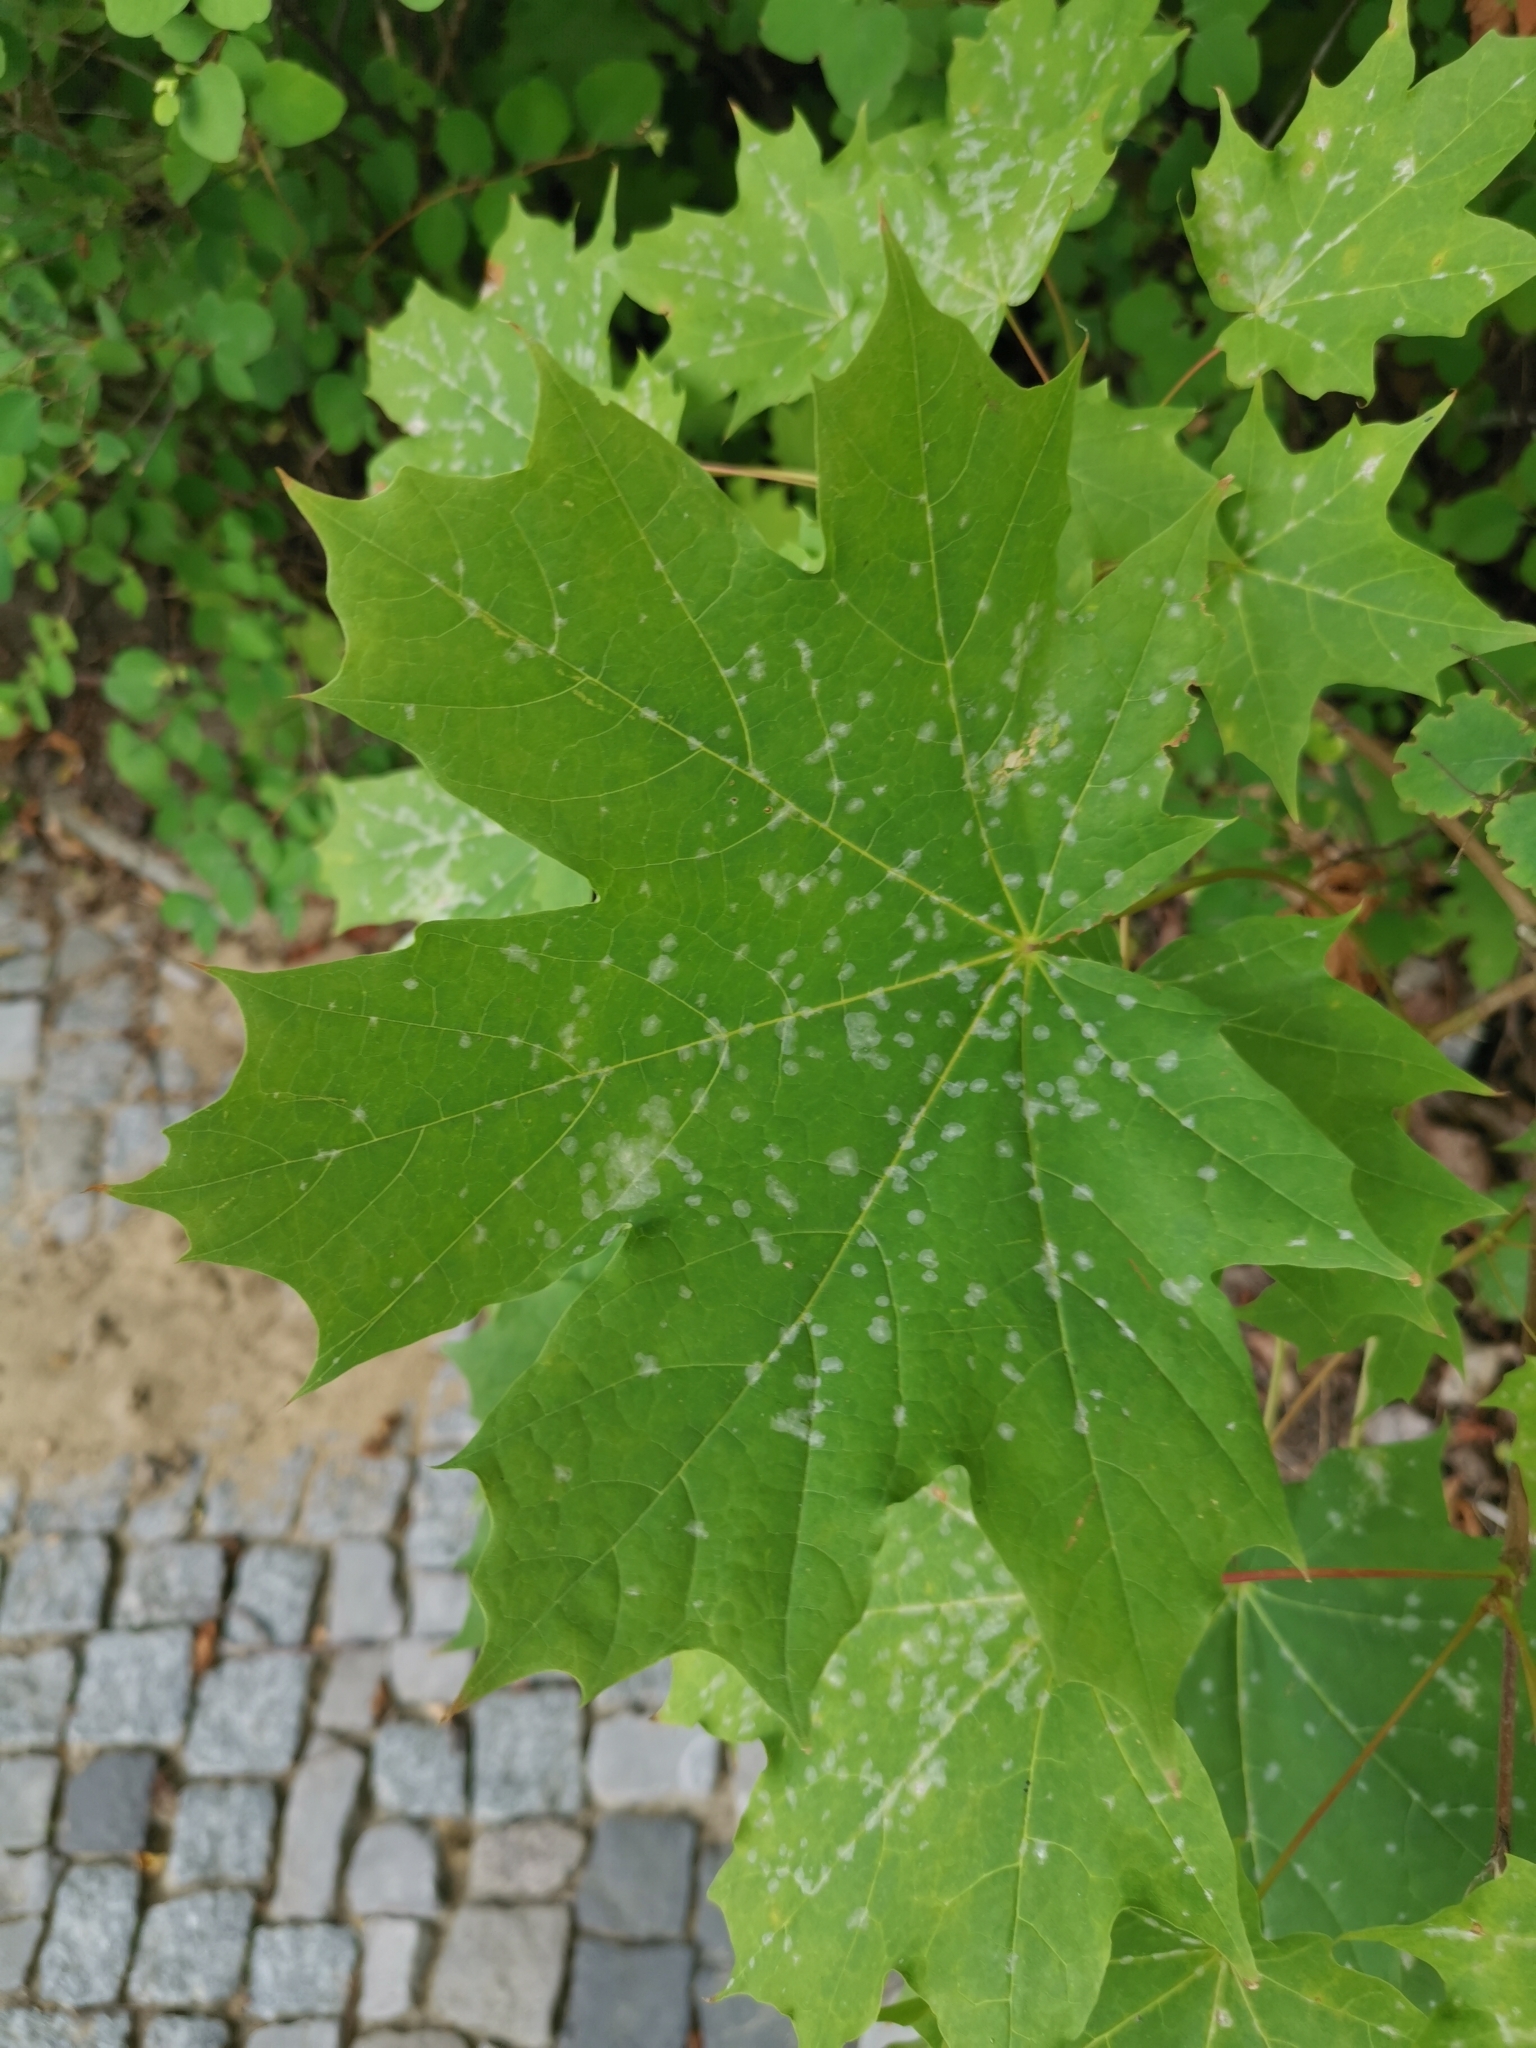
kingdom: Plantae
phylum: Tracheophyta
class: Magnoliopsida
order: Sapindales
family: Sapindaceae
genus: Acer
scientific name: Acer platanoides
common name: Norway maple
